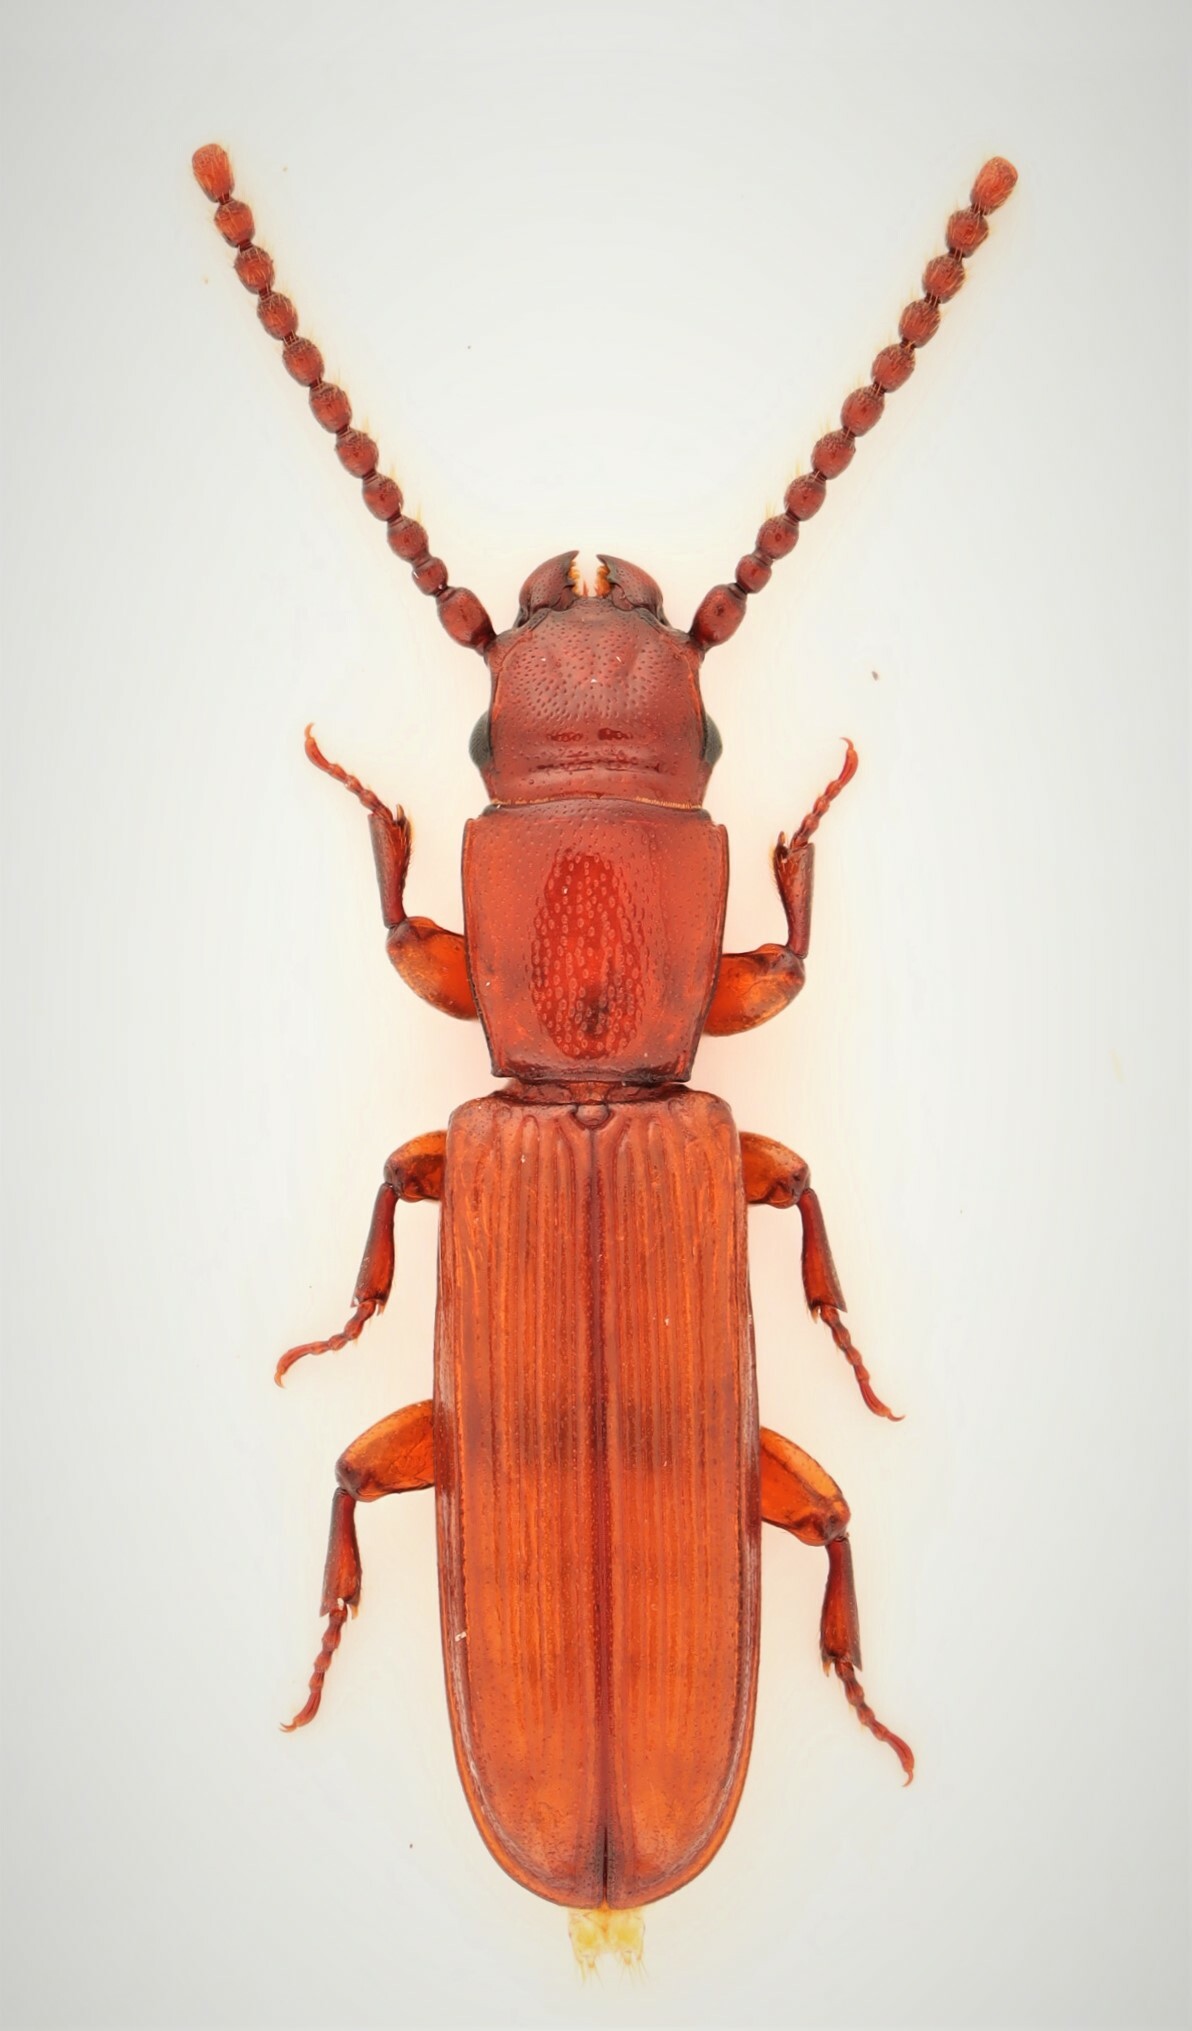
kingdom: Animalia
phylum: Arthropoda
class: Insecta
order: Coleoptera
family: Passandridae
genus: Catogenus
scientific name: Catogenus rufus
